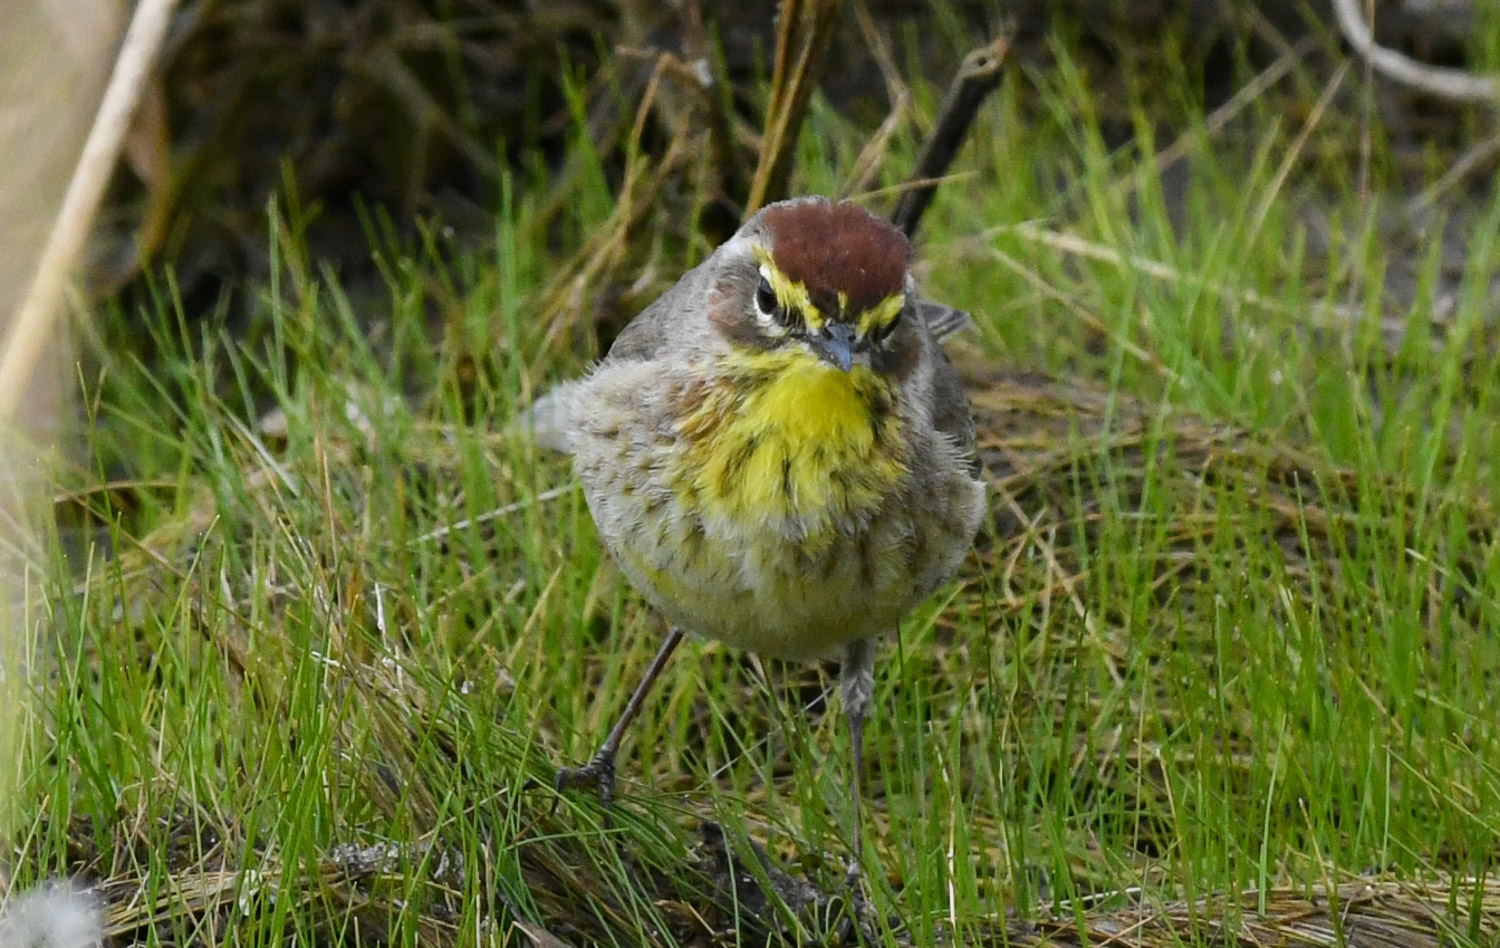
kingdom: Animalia
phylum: Chordata
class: Aves
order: Passeriformes
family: Parulidae
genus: Setophaga
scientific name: Setophaga palmarum
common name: Palm warbler
